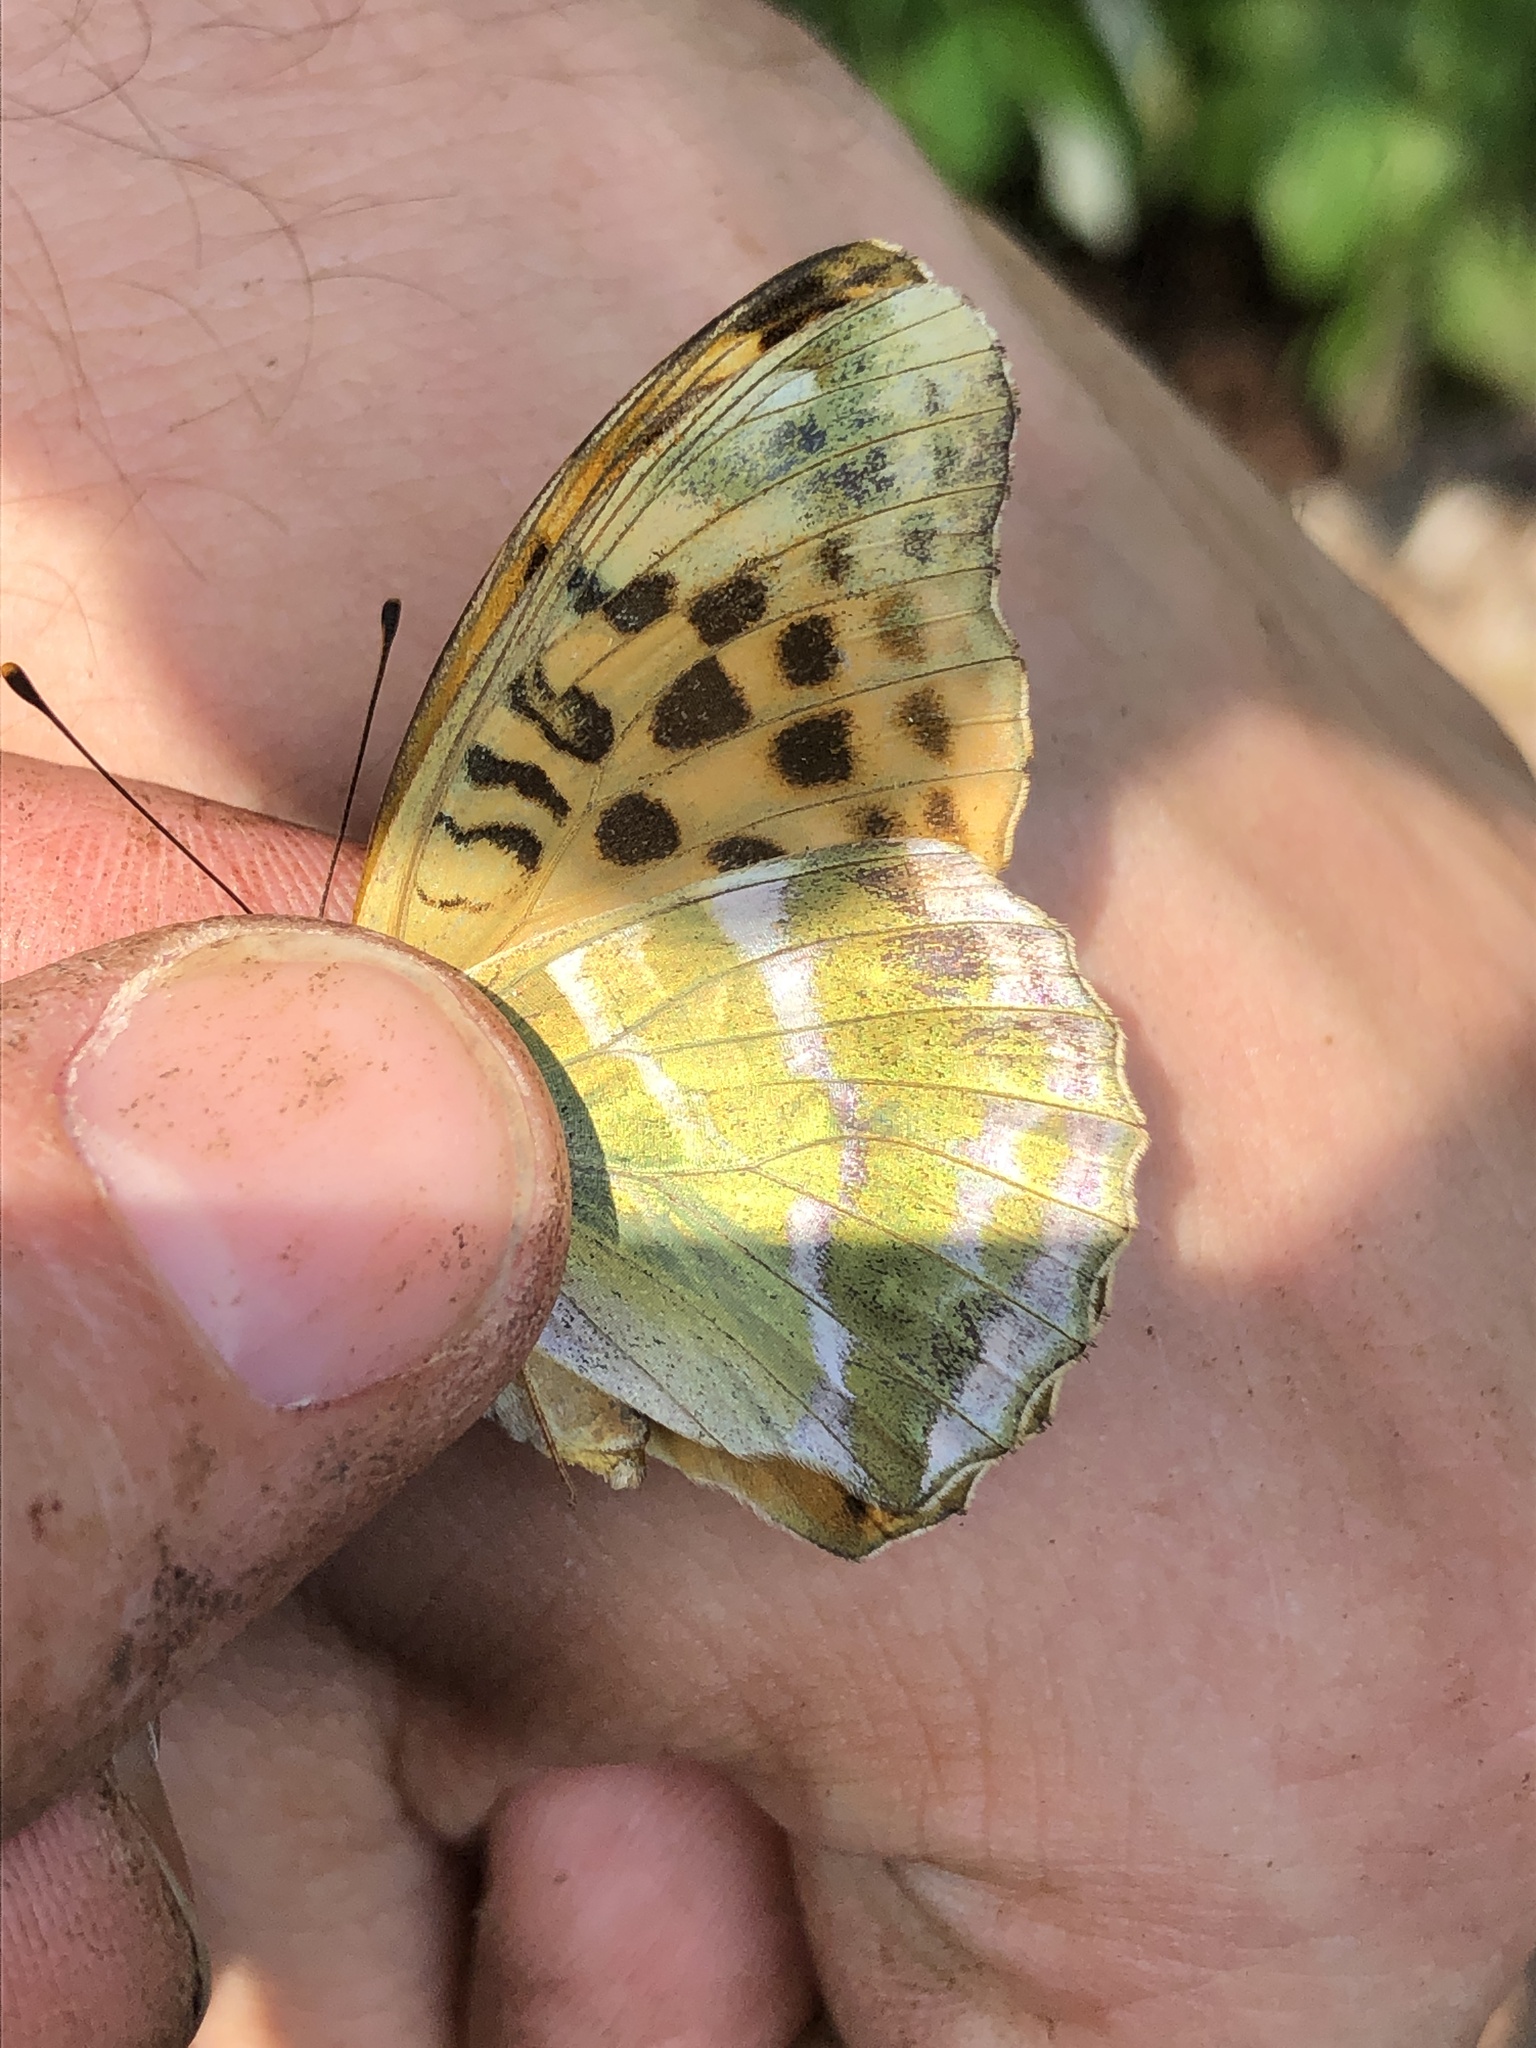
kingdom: Animalia
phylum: Arthropoda
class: Insecta
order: Lepidoptera
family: Nymphalidae
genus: Argynnis
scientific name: Argynnis paphia
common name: Silver-washed fritillary
